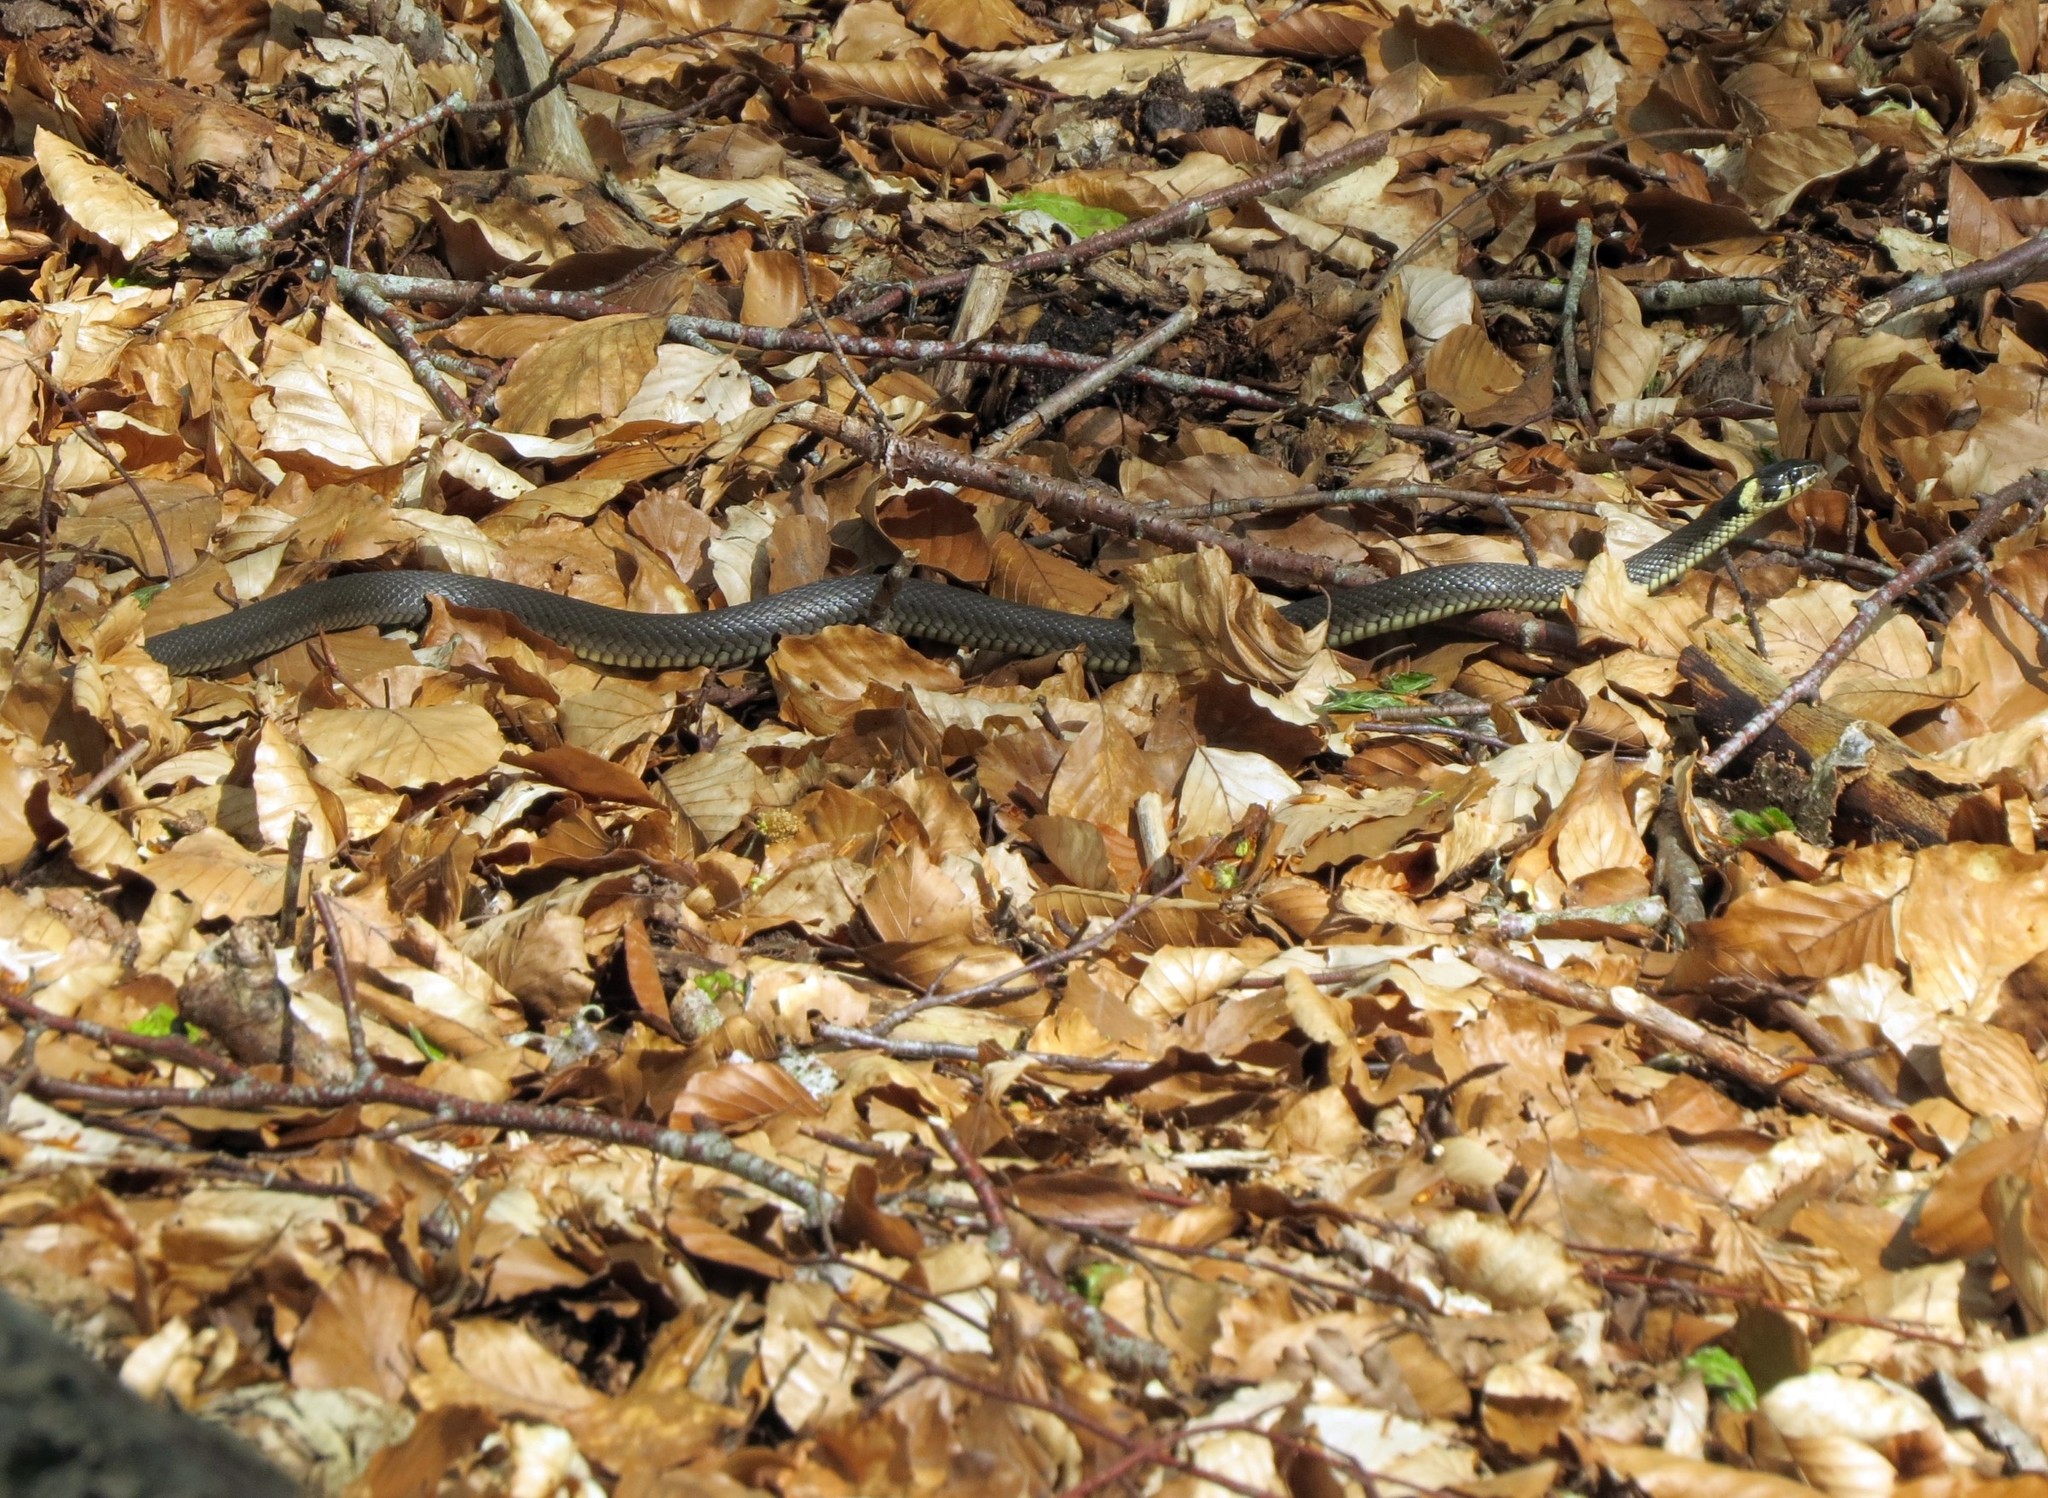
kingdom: Animalia
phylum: Chordata
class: Squamata
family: Colubridae
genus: Natrix
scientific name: Natrix natrix
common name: Grass snake
